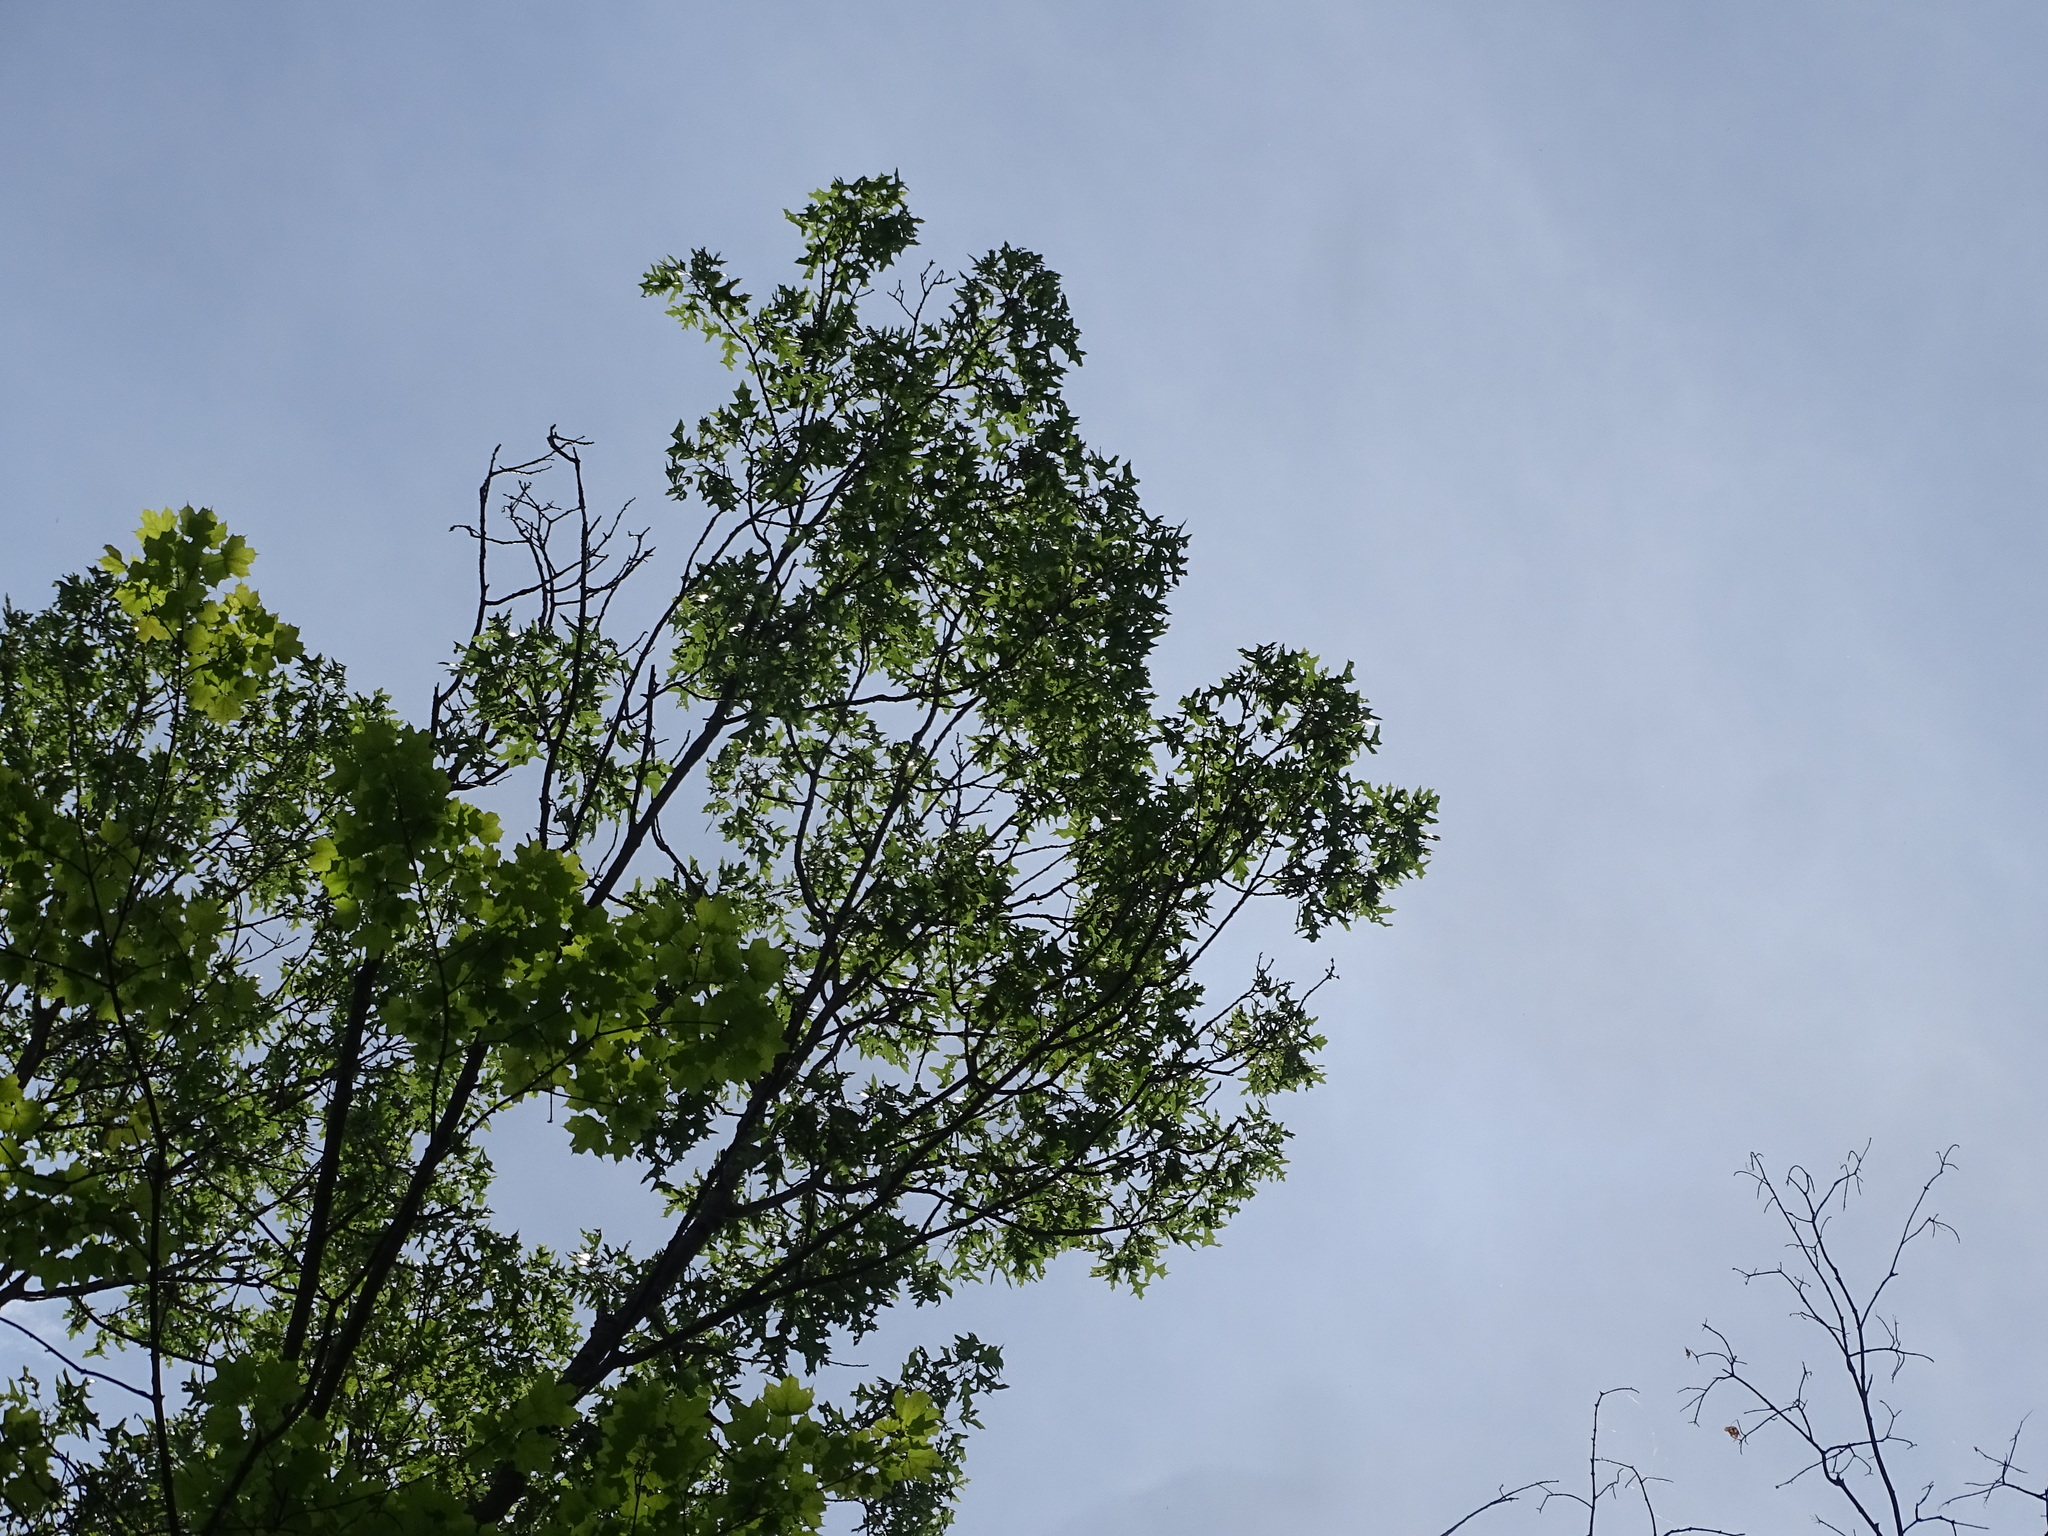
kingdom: Plantae
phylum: Tracheophyta
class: Magnoliopsida
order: Fagales
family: Fagaceae
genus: Quercus
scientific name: Quercus velutina
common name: Black oak
